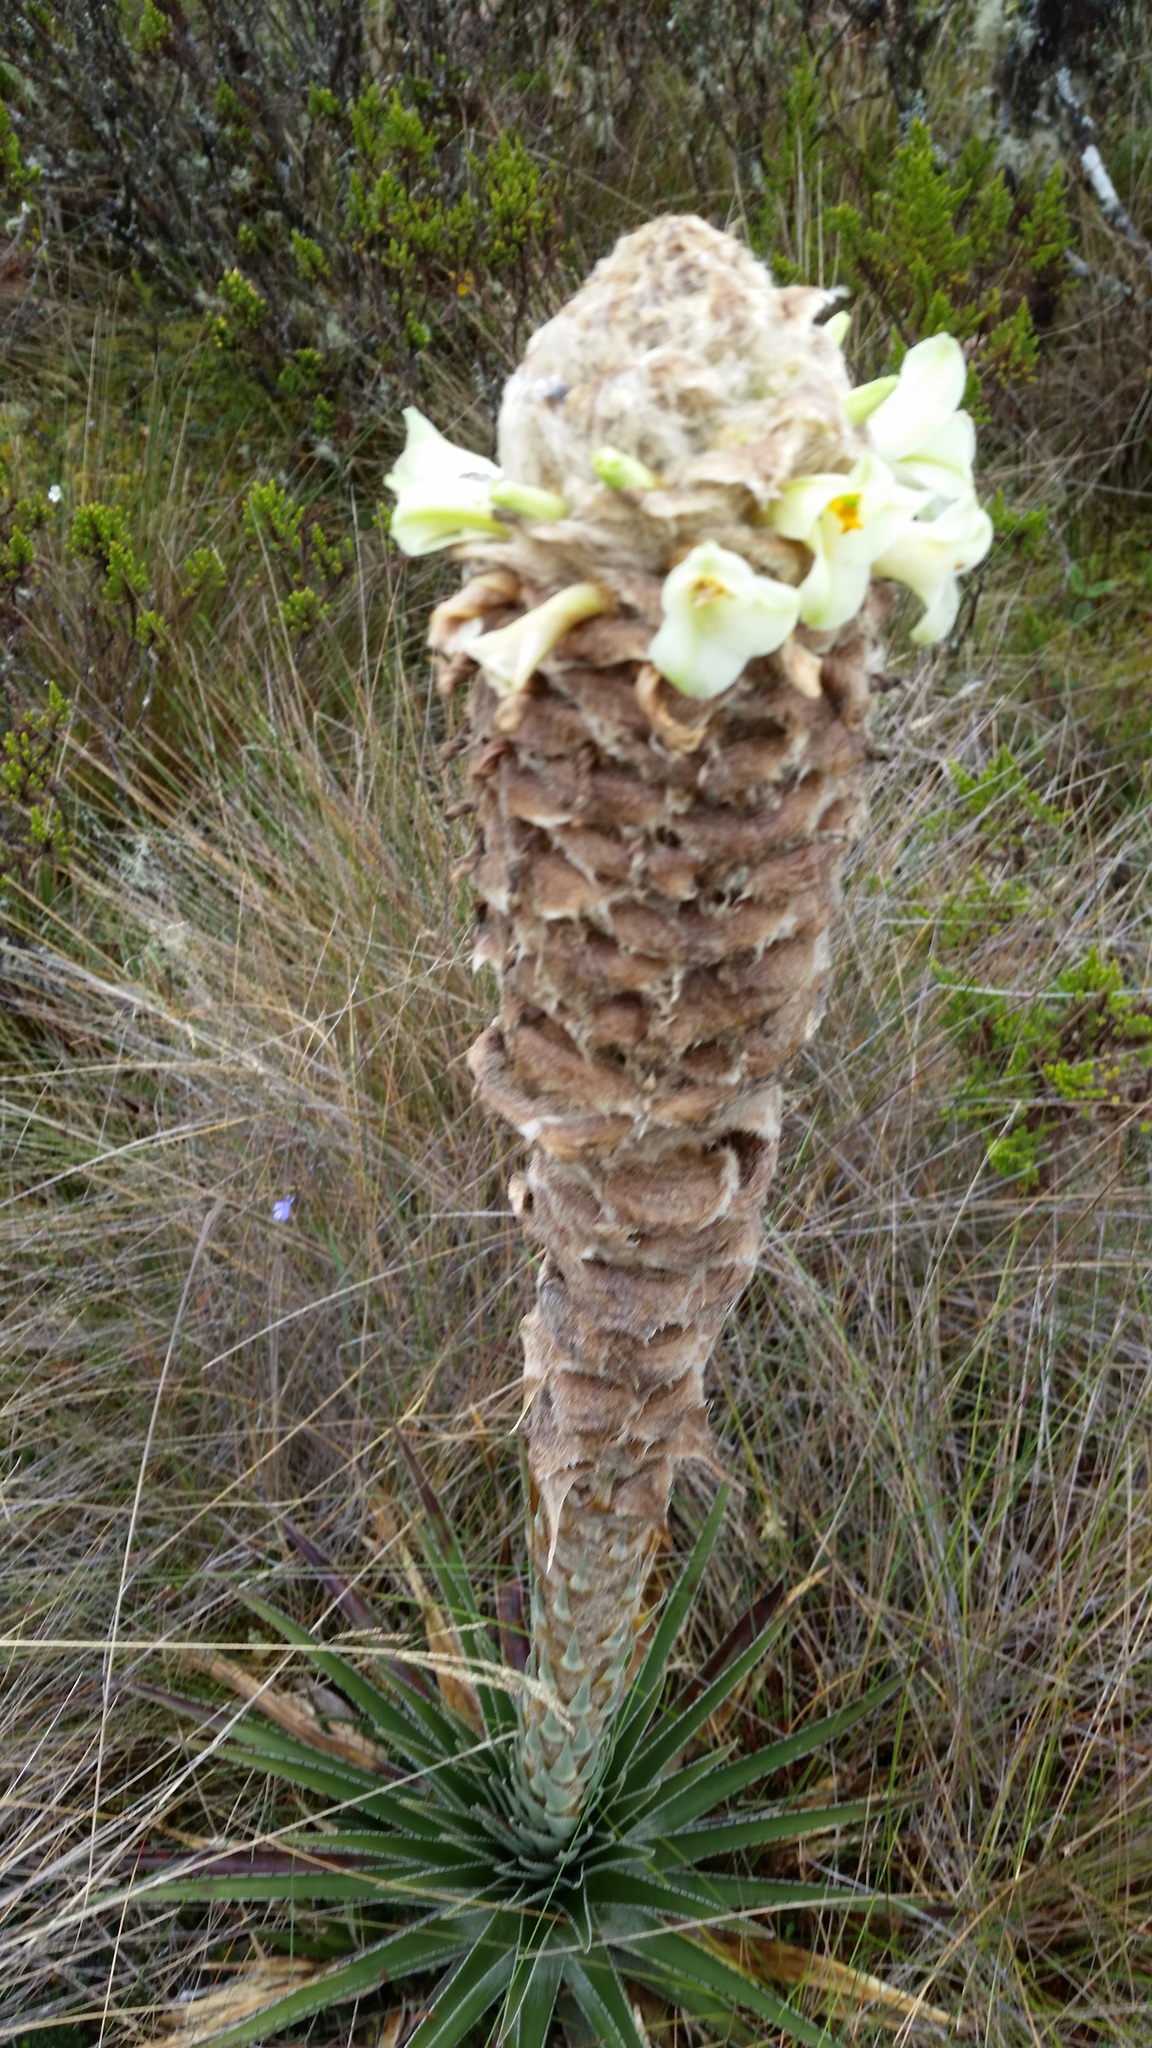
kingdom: Plantae
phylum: Tracheophyta
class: Liliopsida
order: Poales
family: Bromeliaceae
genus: Puya
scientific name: Puya trianae
